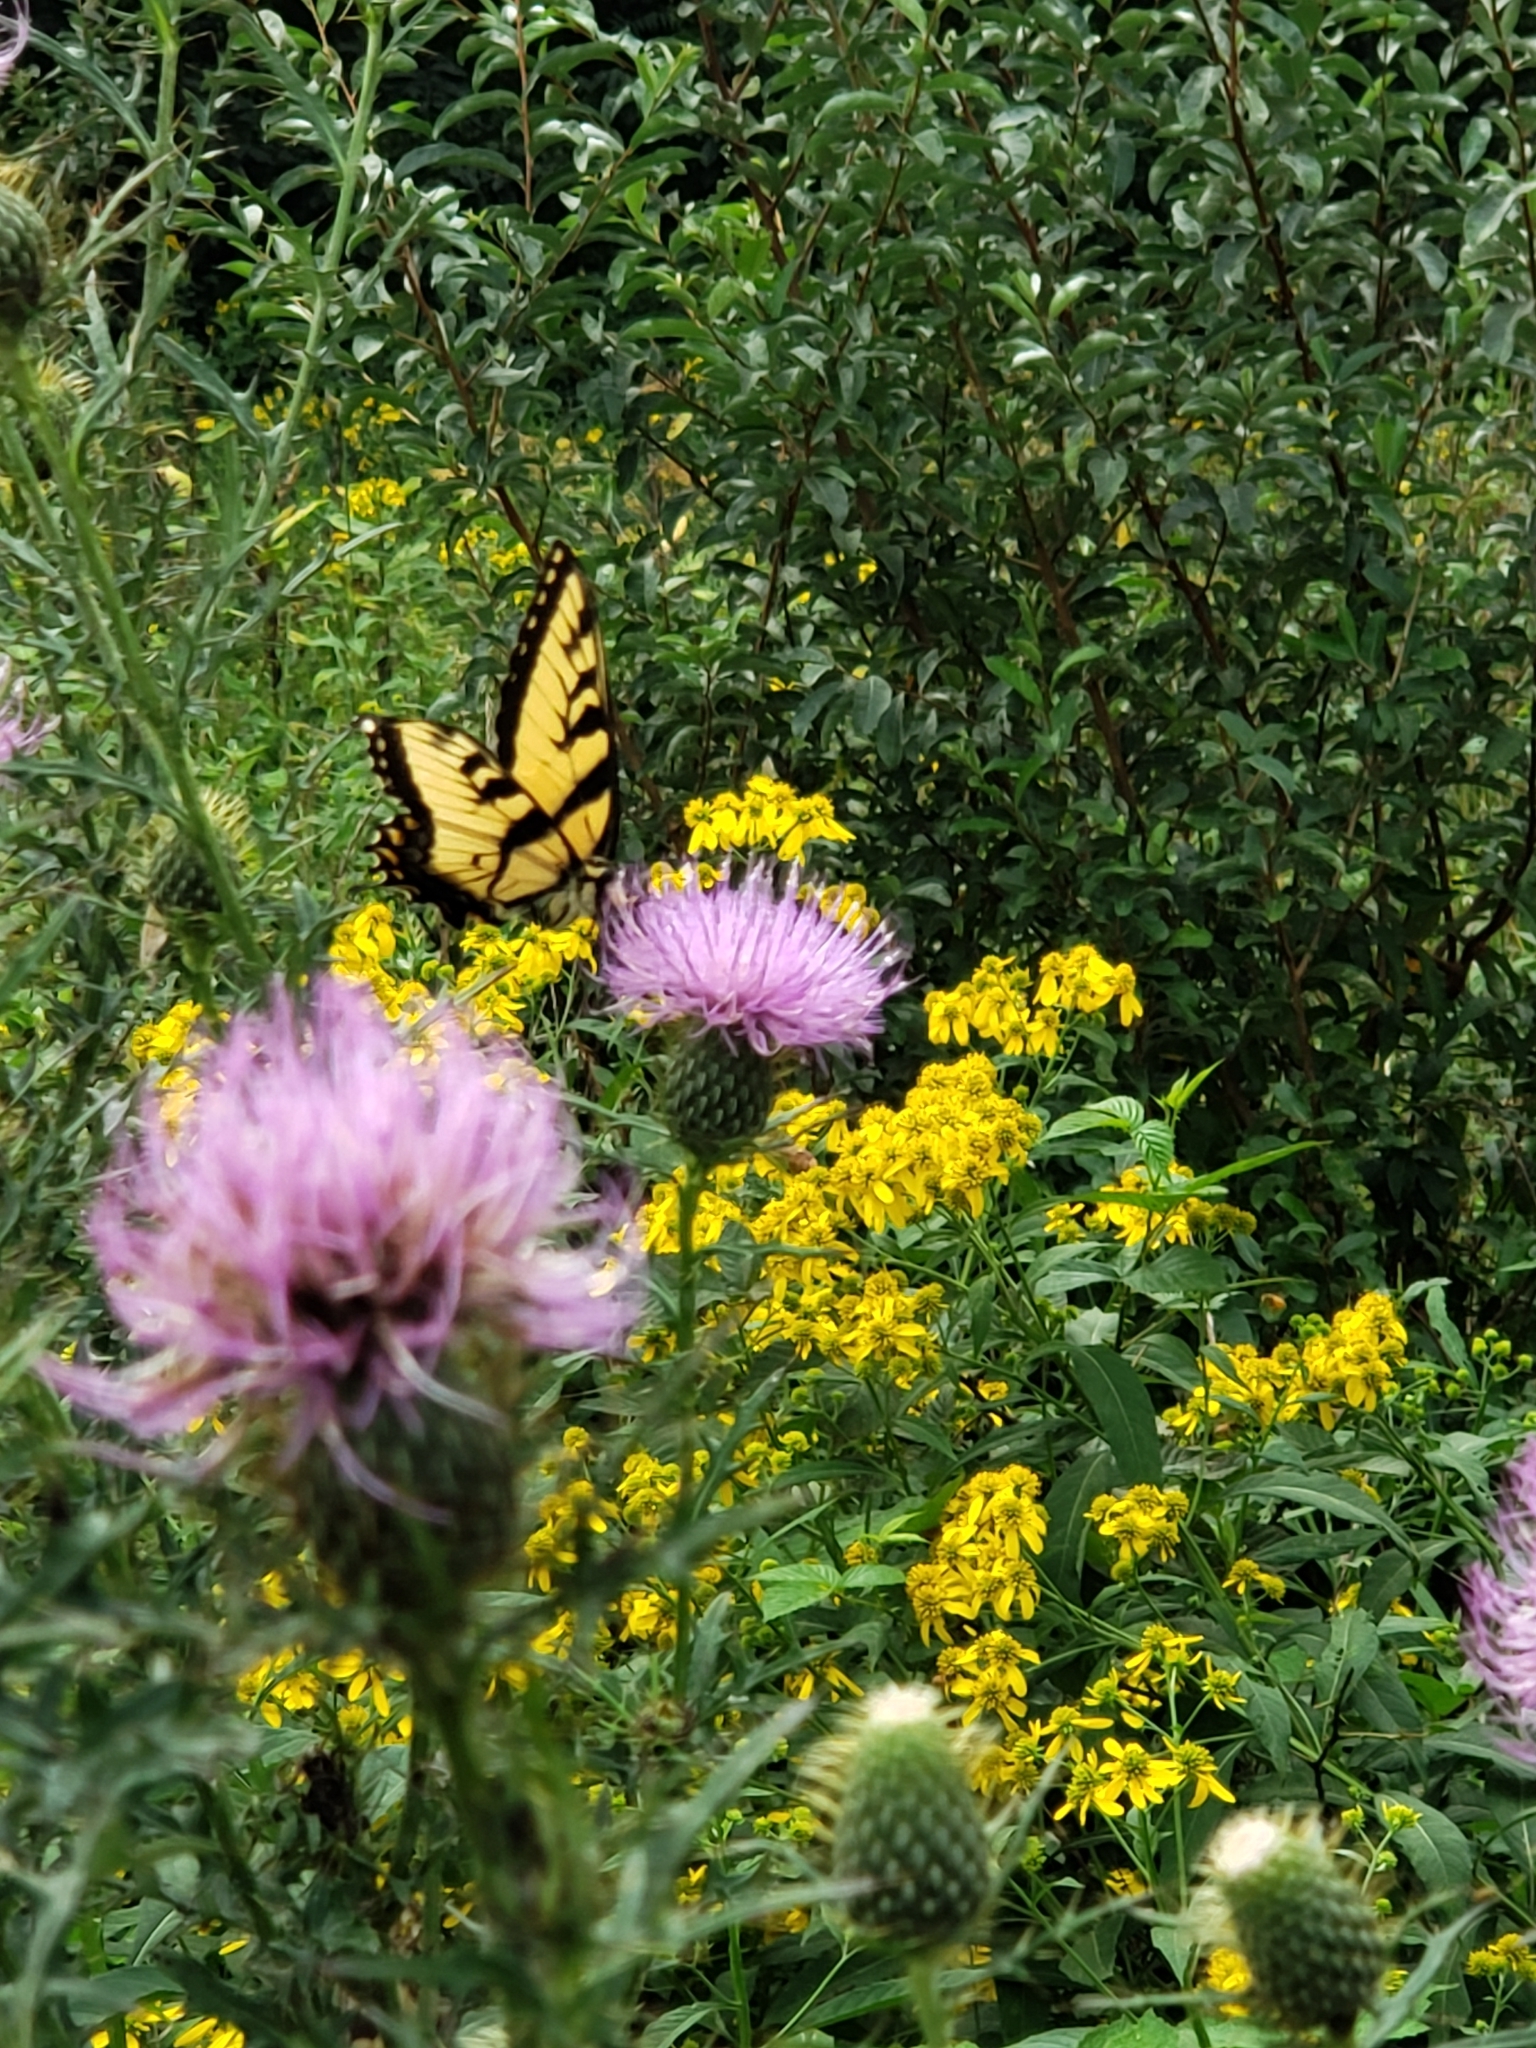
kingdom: Animalia
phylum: Arthropoda
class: Insecta
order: Lepidoptera
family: Papilionidae
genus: Papilio
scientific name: Papilio glaucus
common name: Tiger swallowtail
